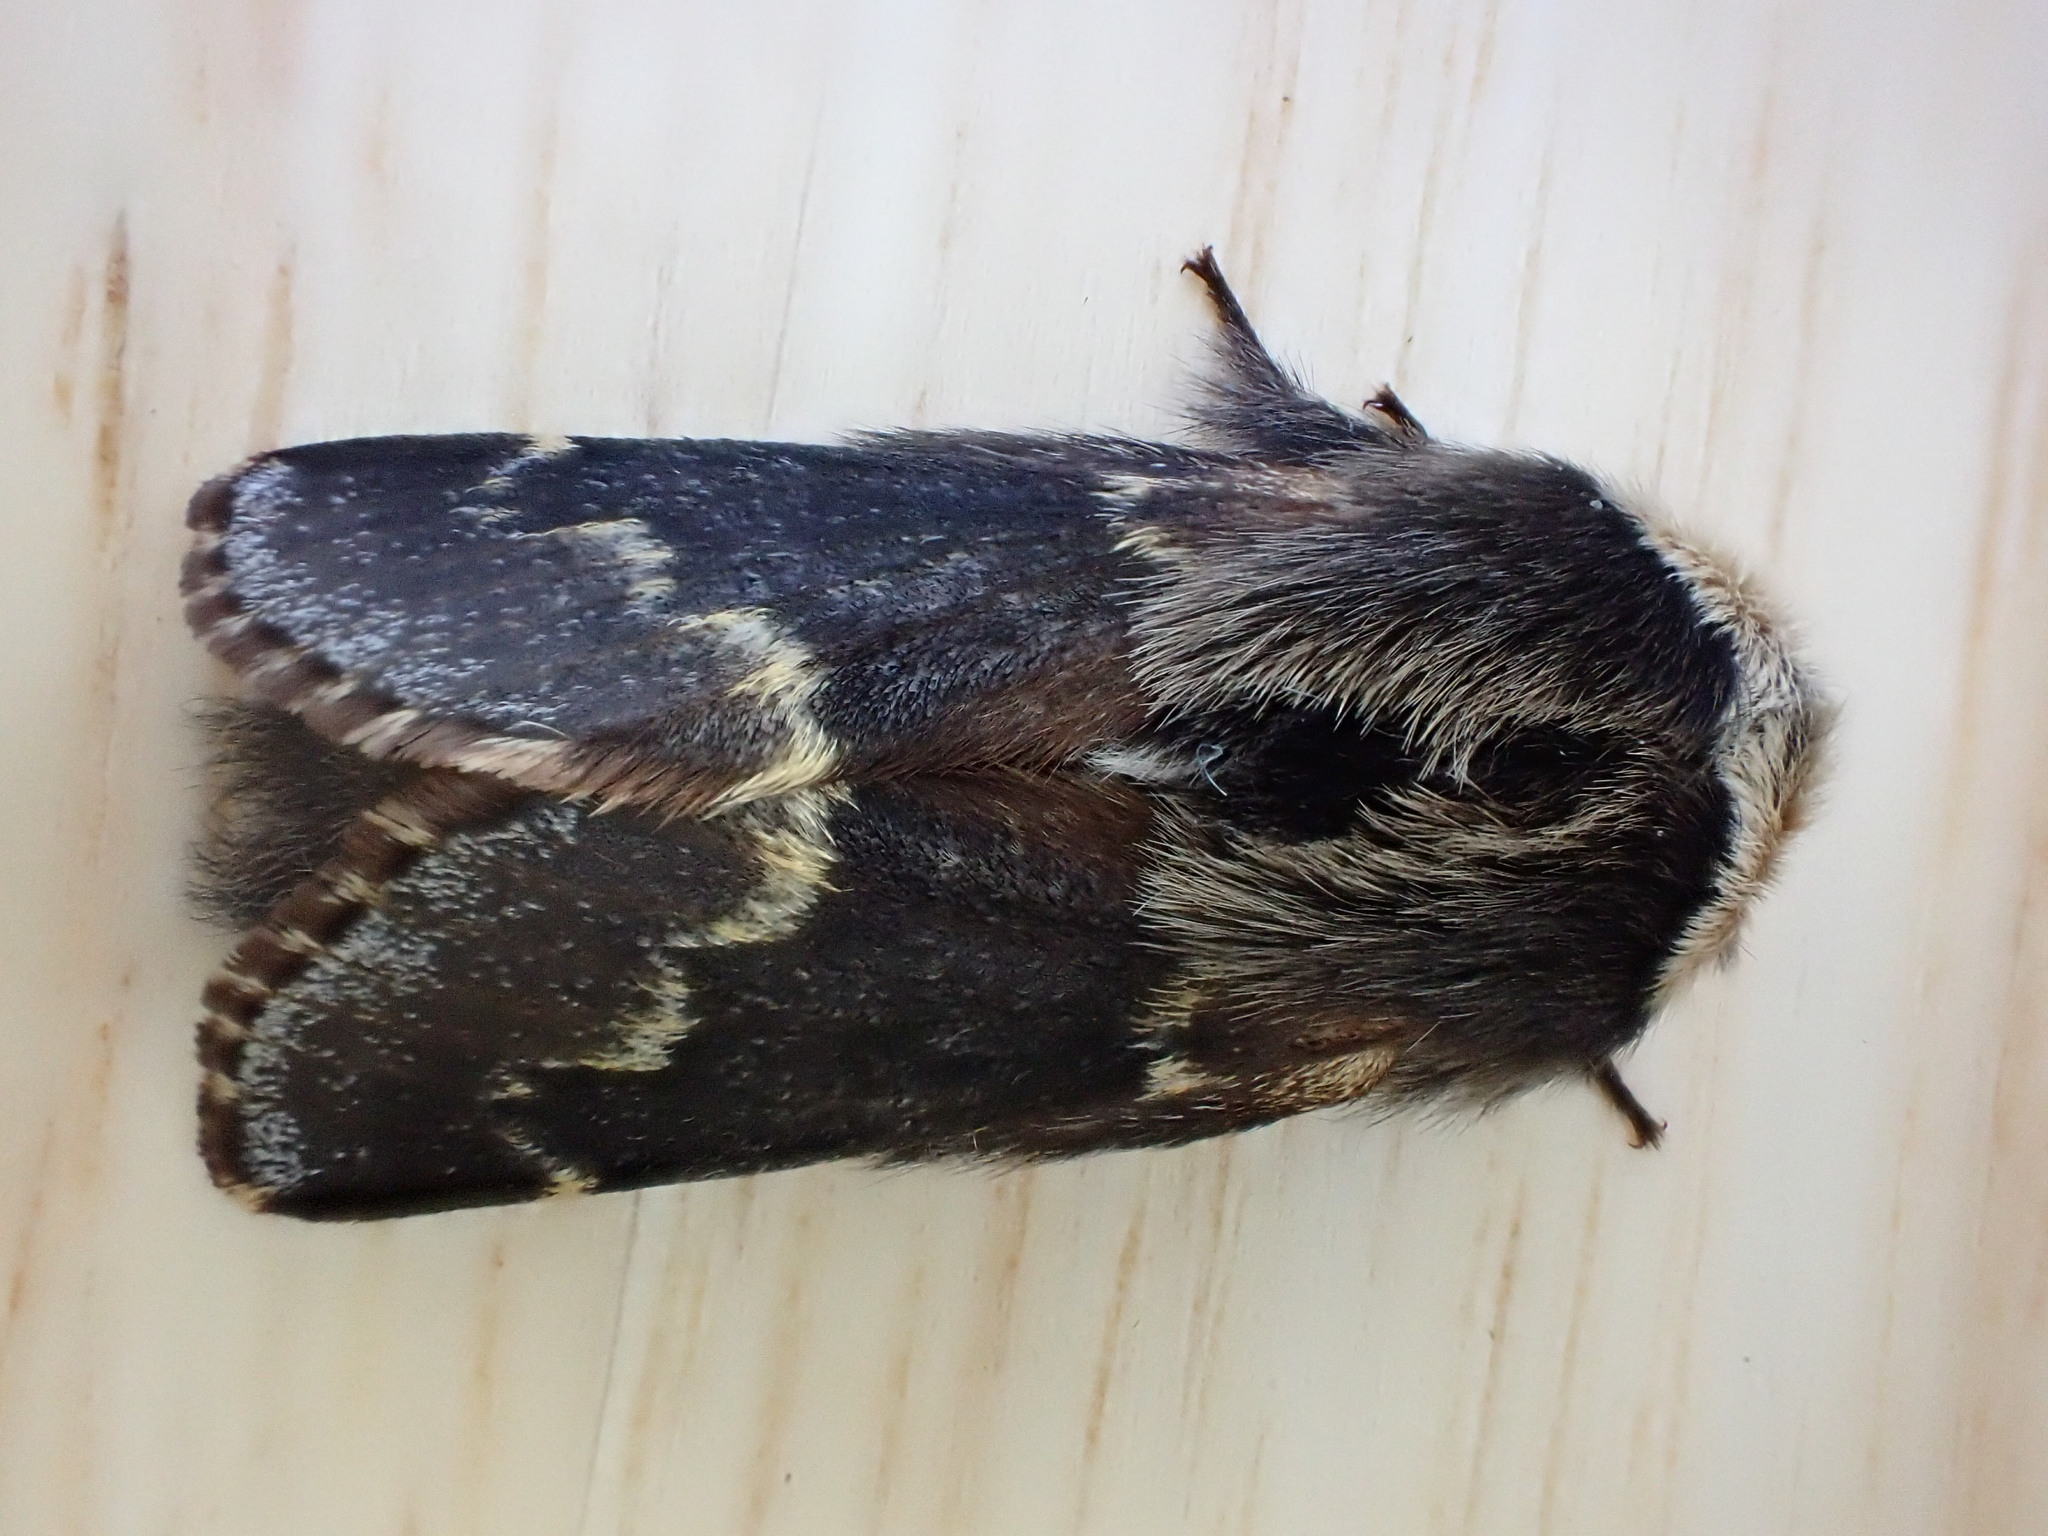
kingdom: Animalia
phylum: Arthropoda
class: Insecta
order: Lepidoptera
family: Lasiocampidae
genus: Poecilocampa
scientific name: Poecilocampa populi
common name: December moth
